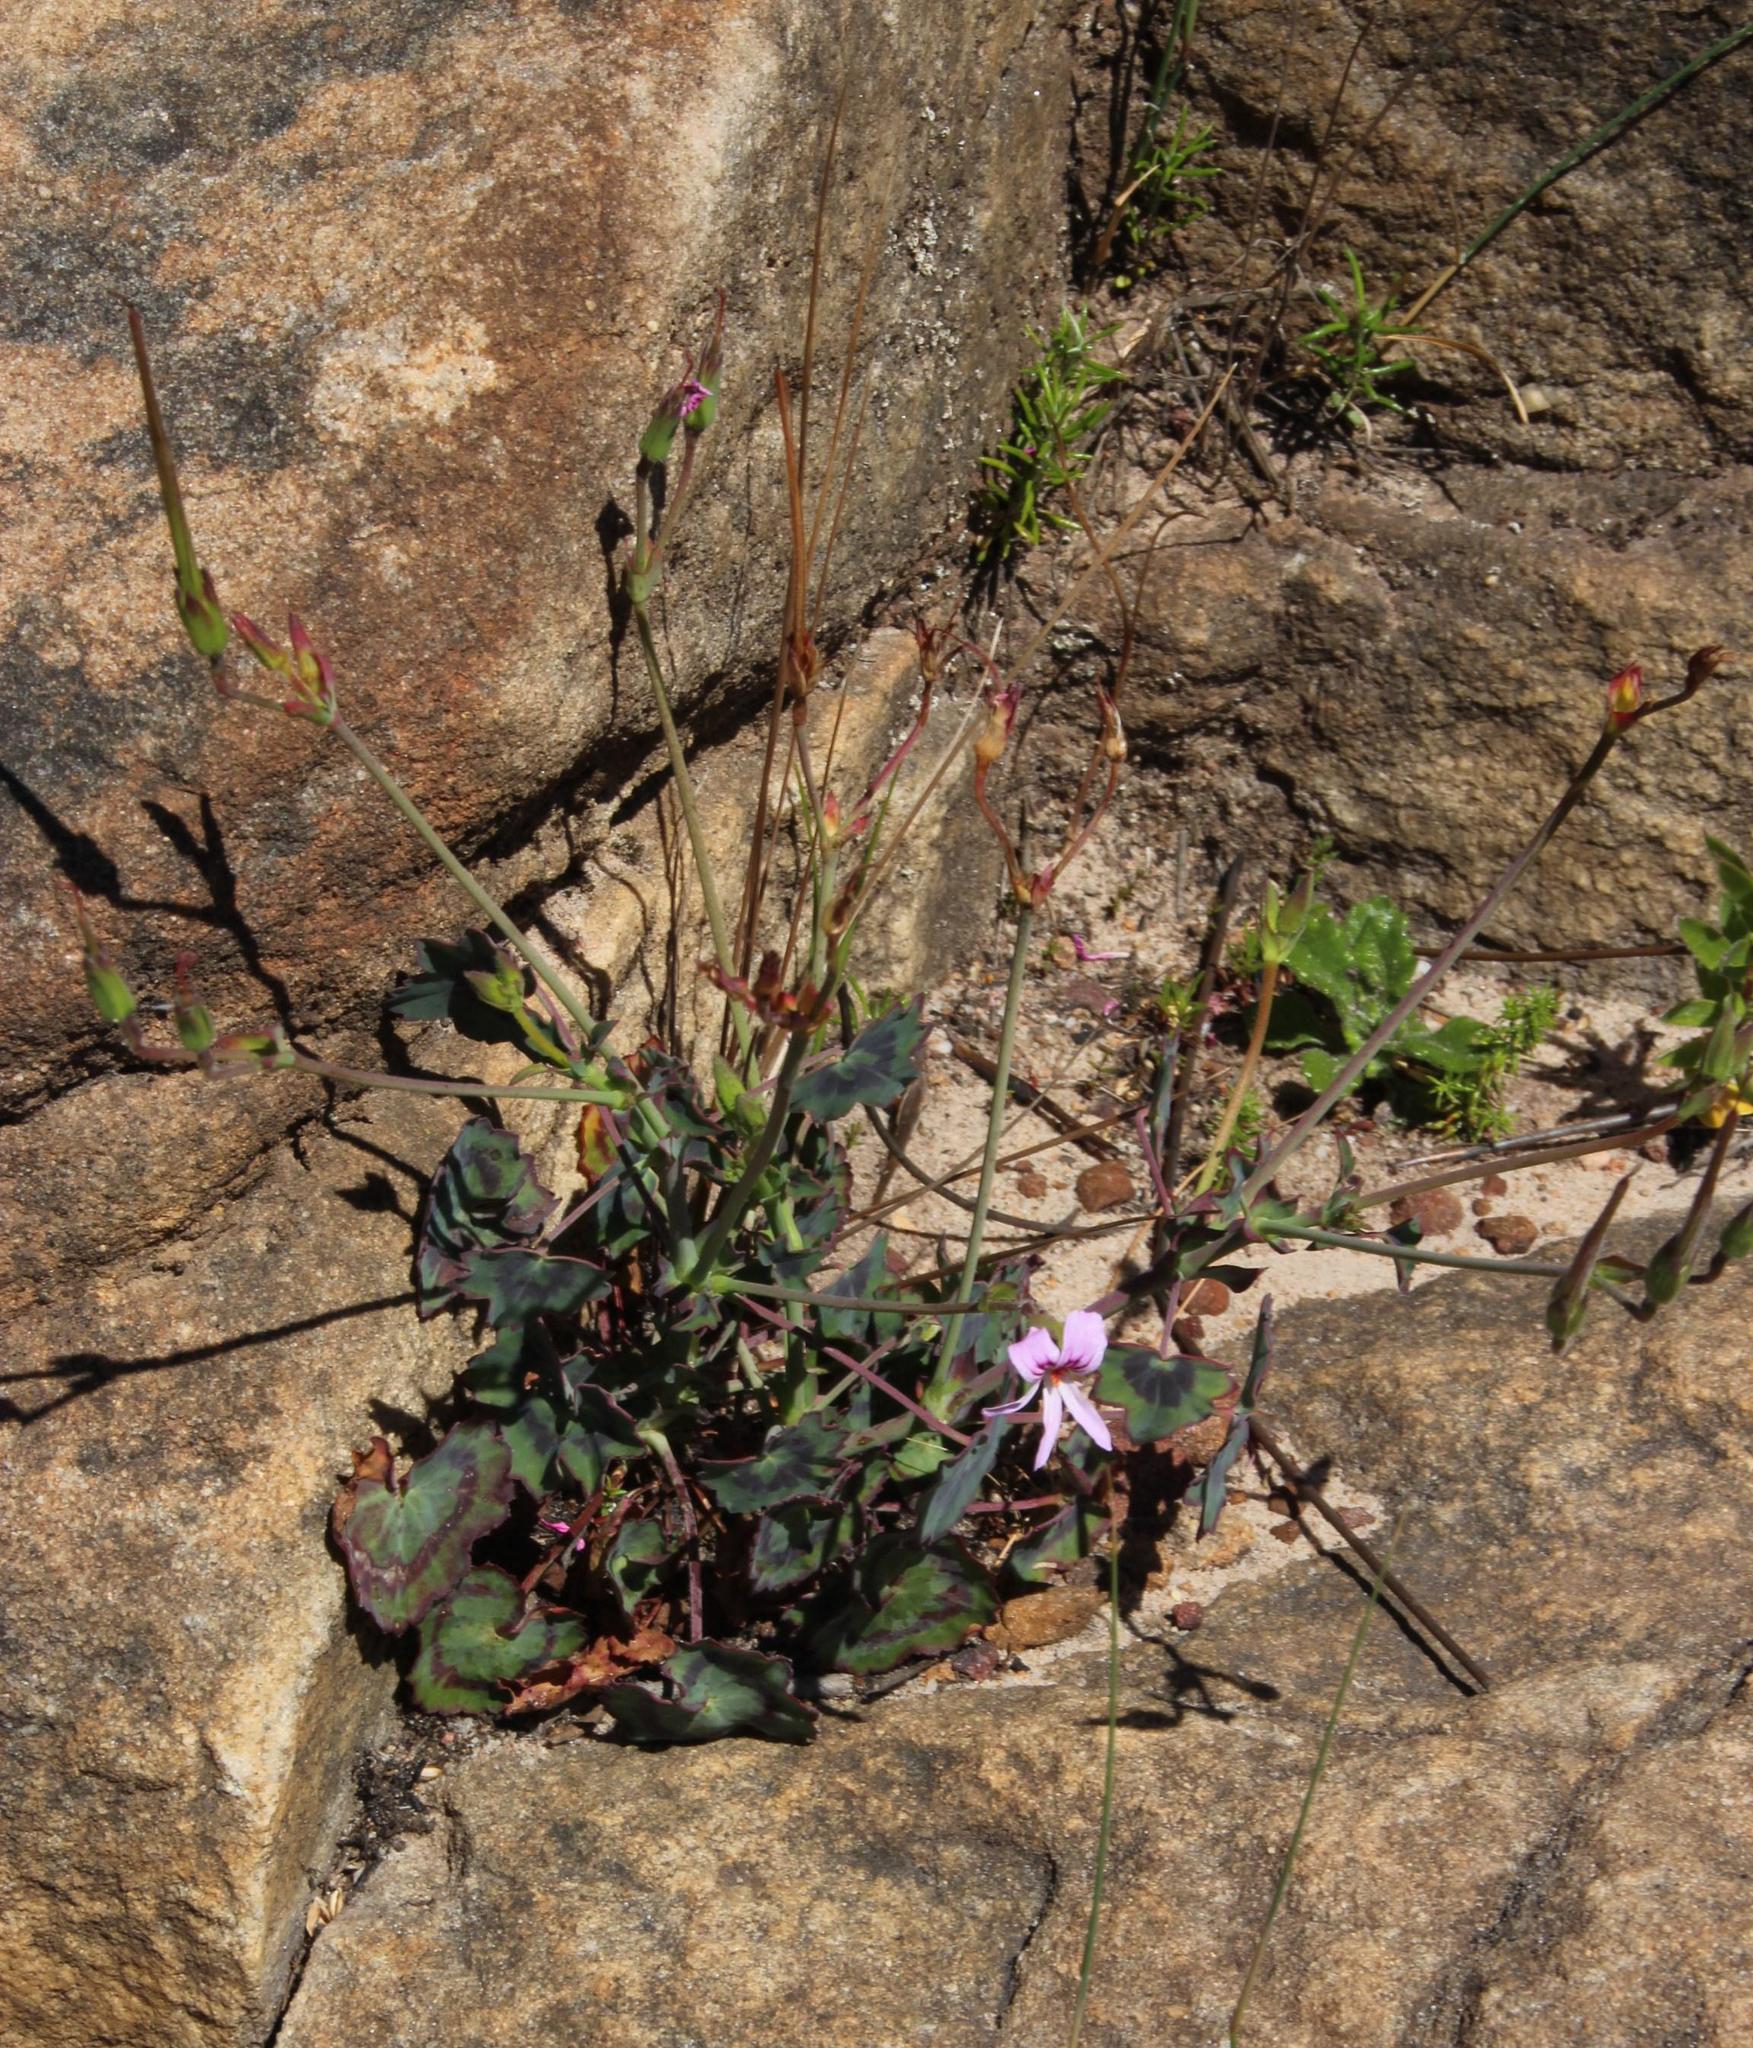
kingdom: Plantae
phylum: Tracheophyta
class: Magnoliopsida
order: Geraniales
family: Geraniaceae
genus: Pelargonium
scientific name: Pelargonium tabulare
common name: Table mountain pelargonium
